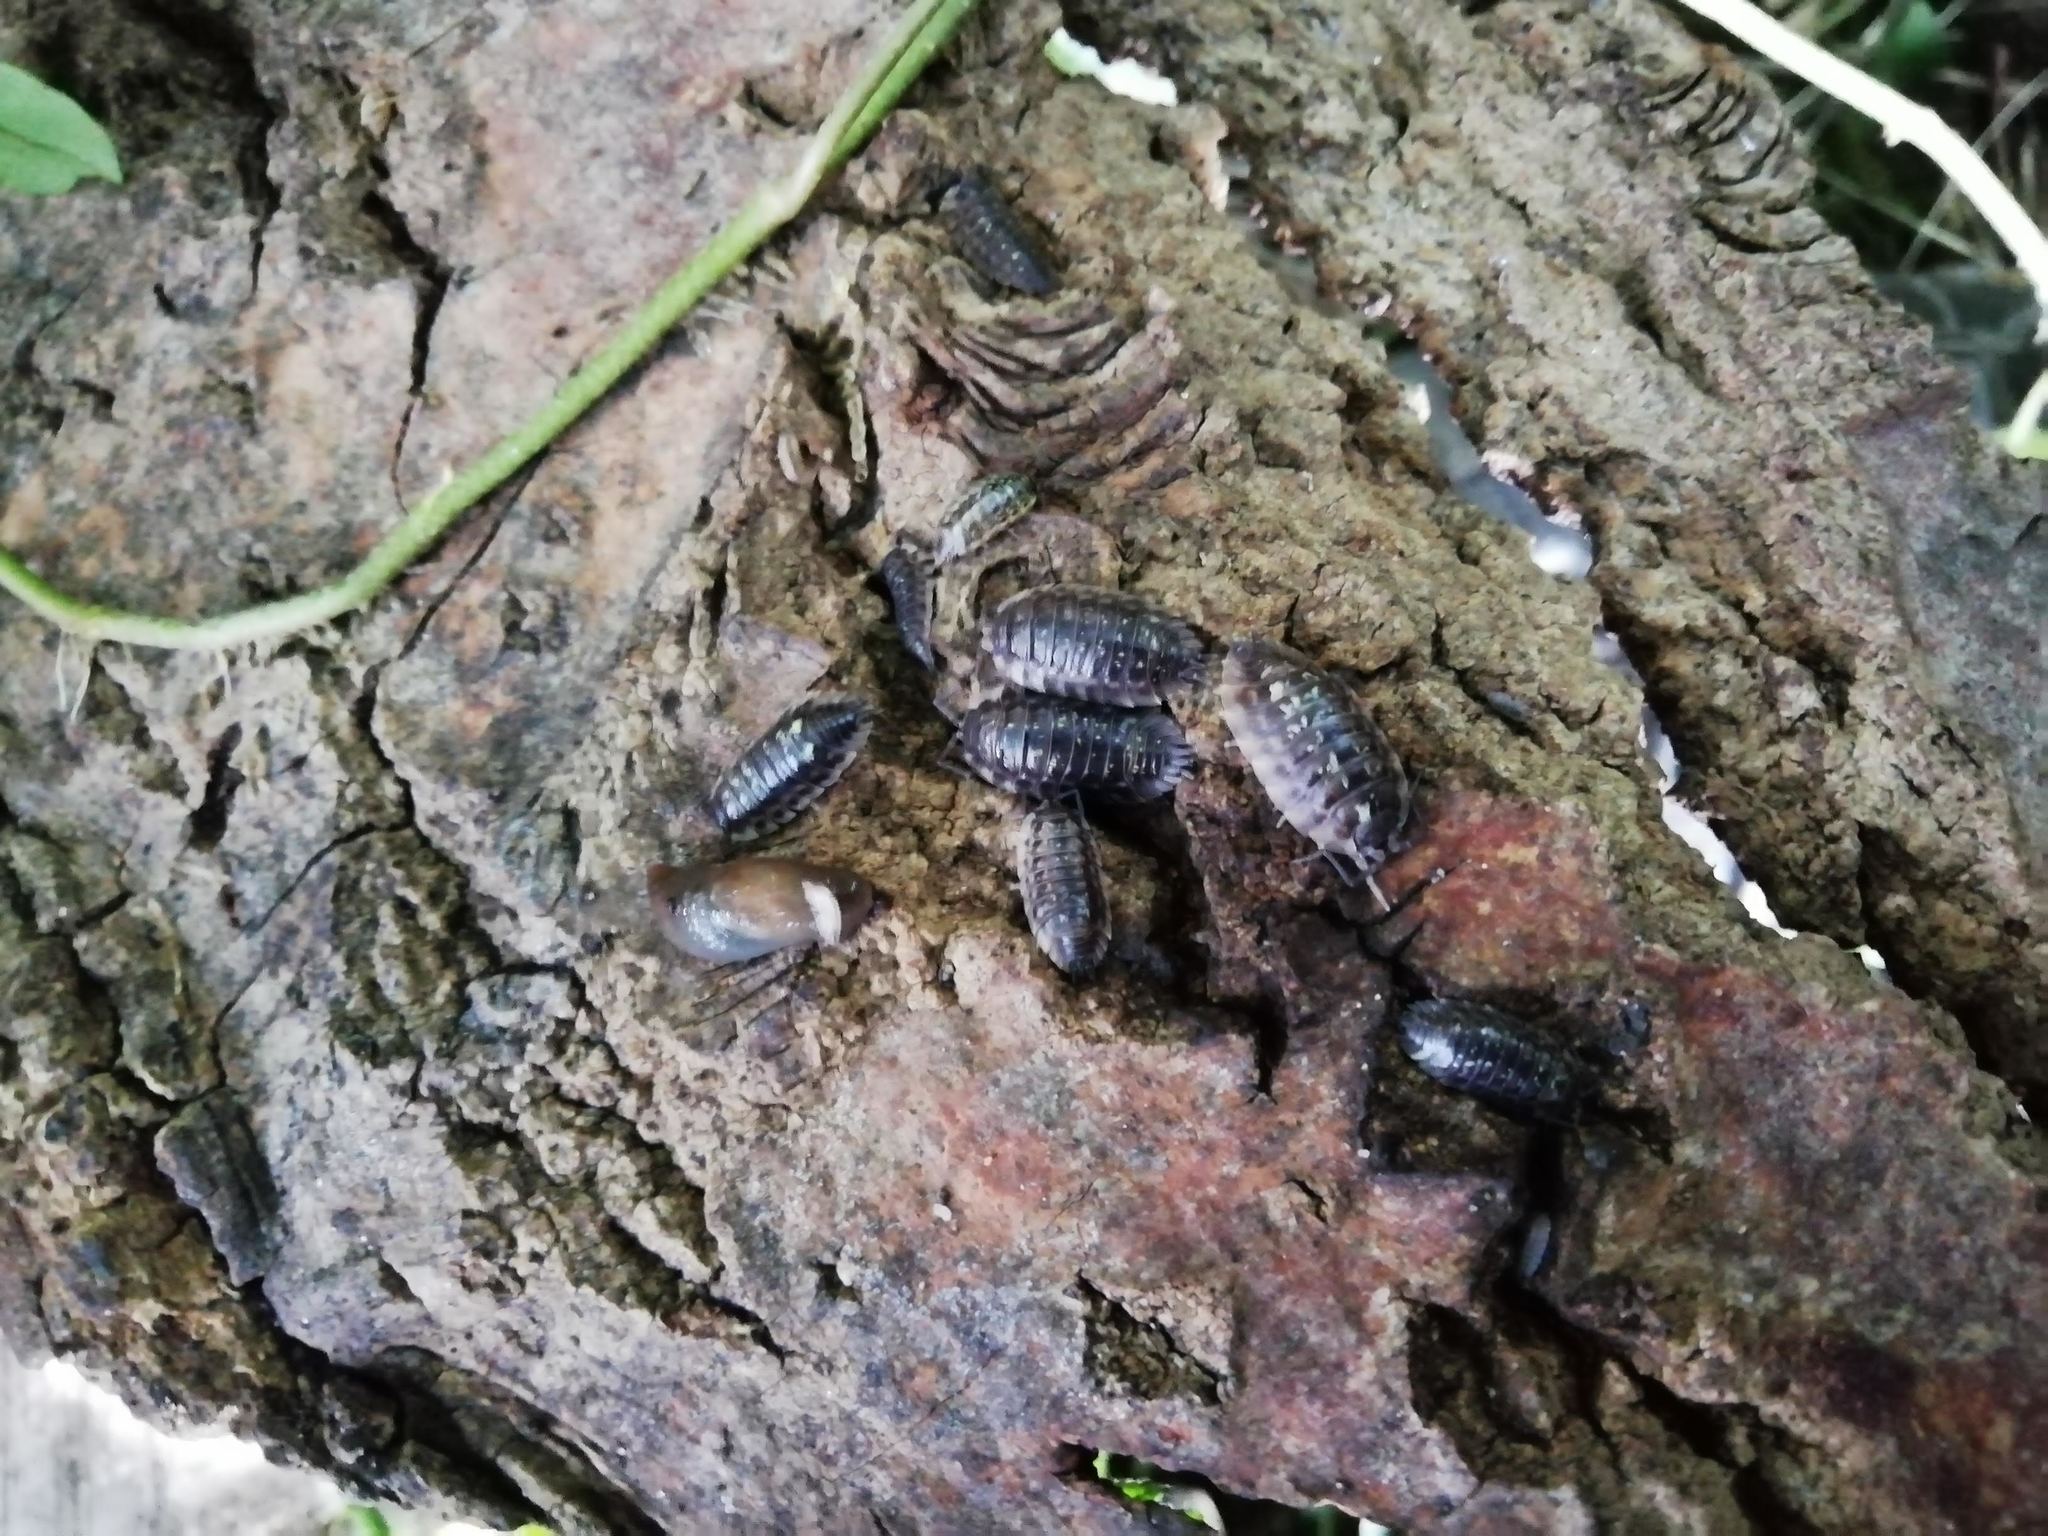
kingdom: Animalia
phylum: Arthropoda
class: Malacostraca
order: Isopoda
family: Oniscidae
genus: Oniscus
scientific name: Oniscus asellus
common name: Common shiny woodlouse
